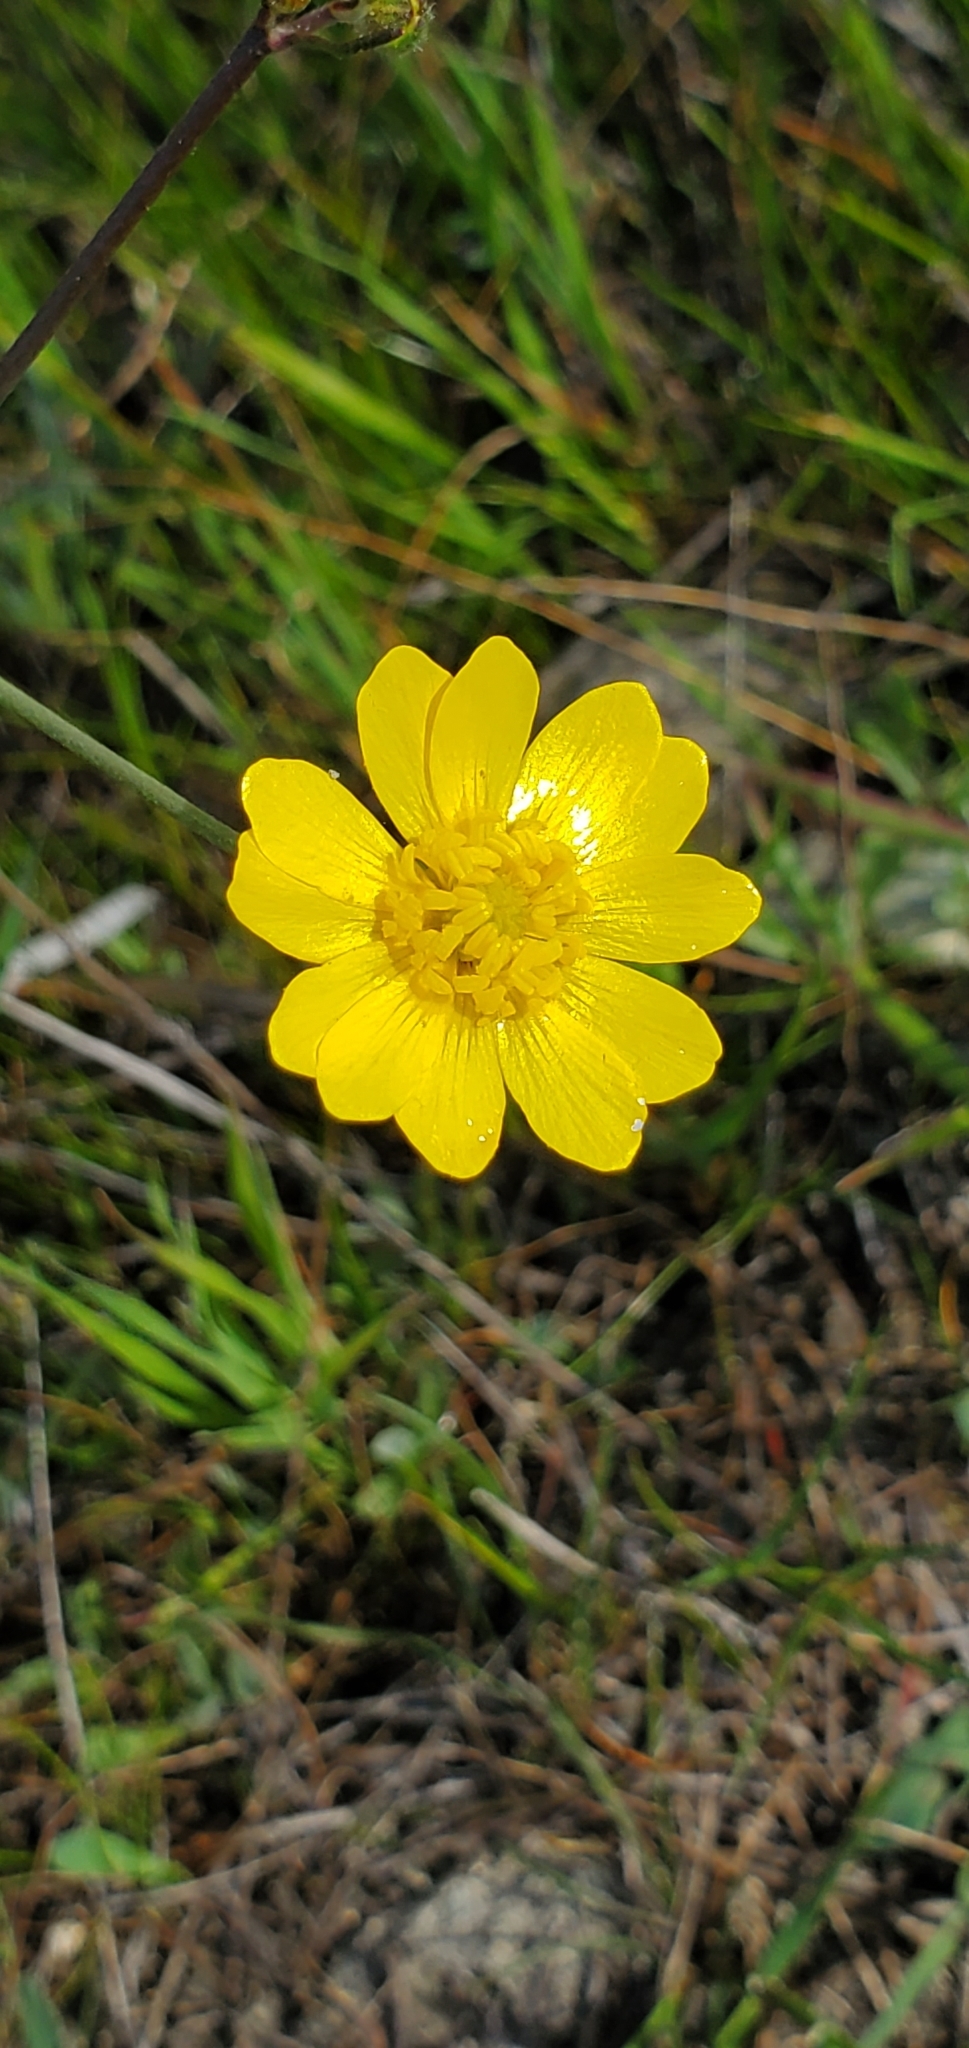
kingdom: Plantae
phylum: Tracheophyta
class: Magnoliopsida
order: Ranunculales
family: Ranunculaceae
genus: Ranunculus
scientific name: Ranunculus californicus
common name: California buttercup
